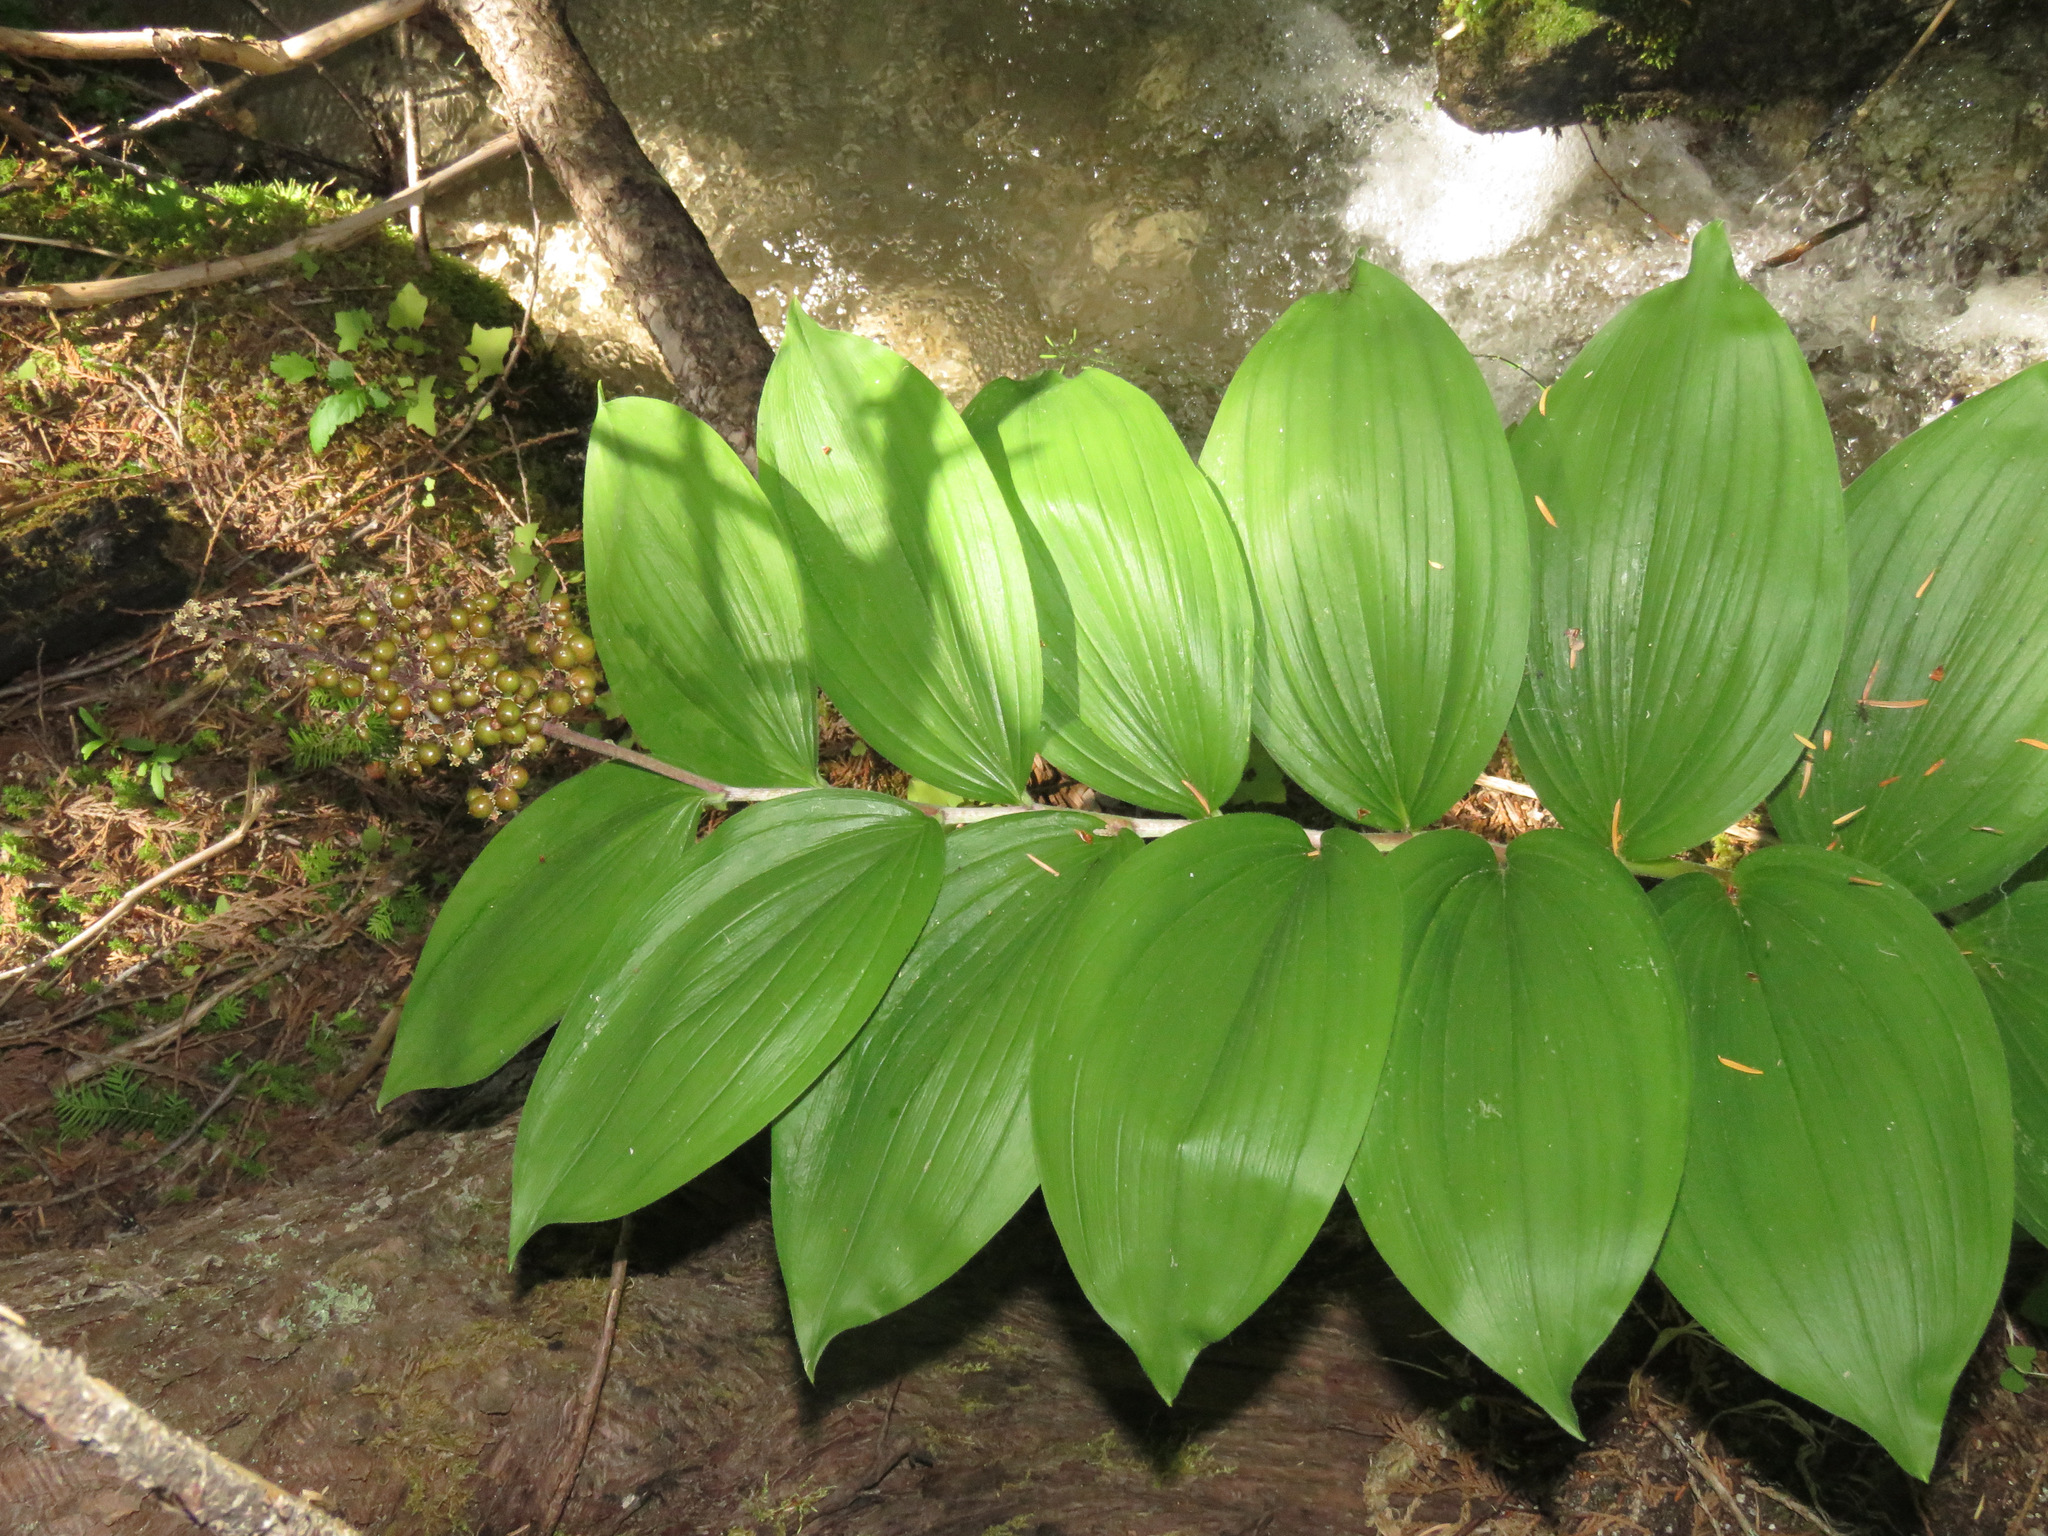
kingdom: Plantae
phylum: Tracheophyta
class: Liliopsida
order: Asparagales
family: Asparagaceae
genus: Maianthemum
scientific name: Maianthemum racemosum
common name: False spikenard
